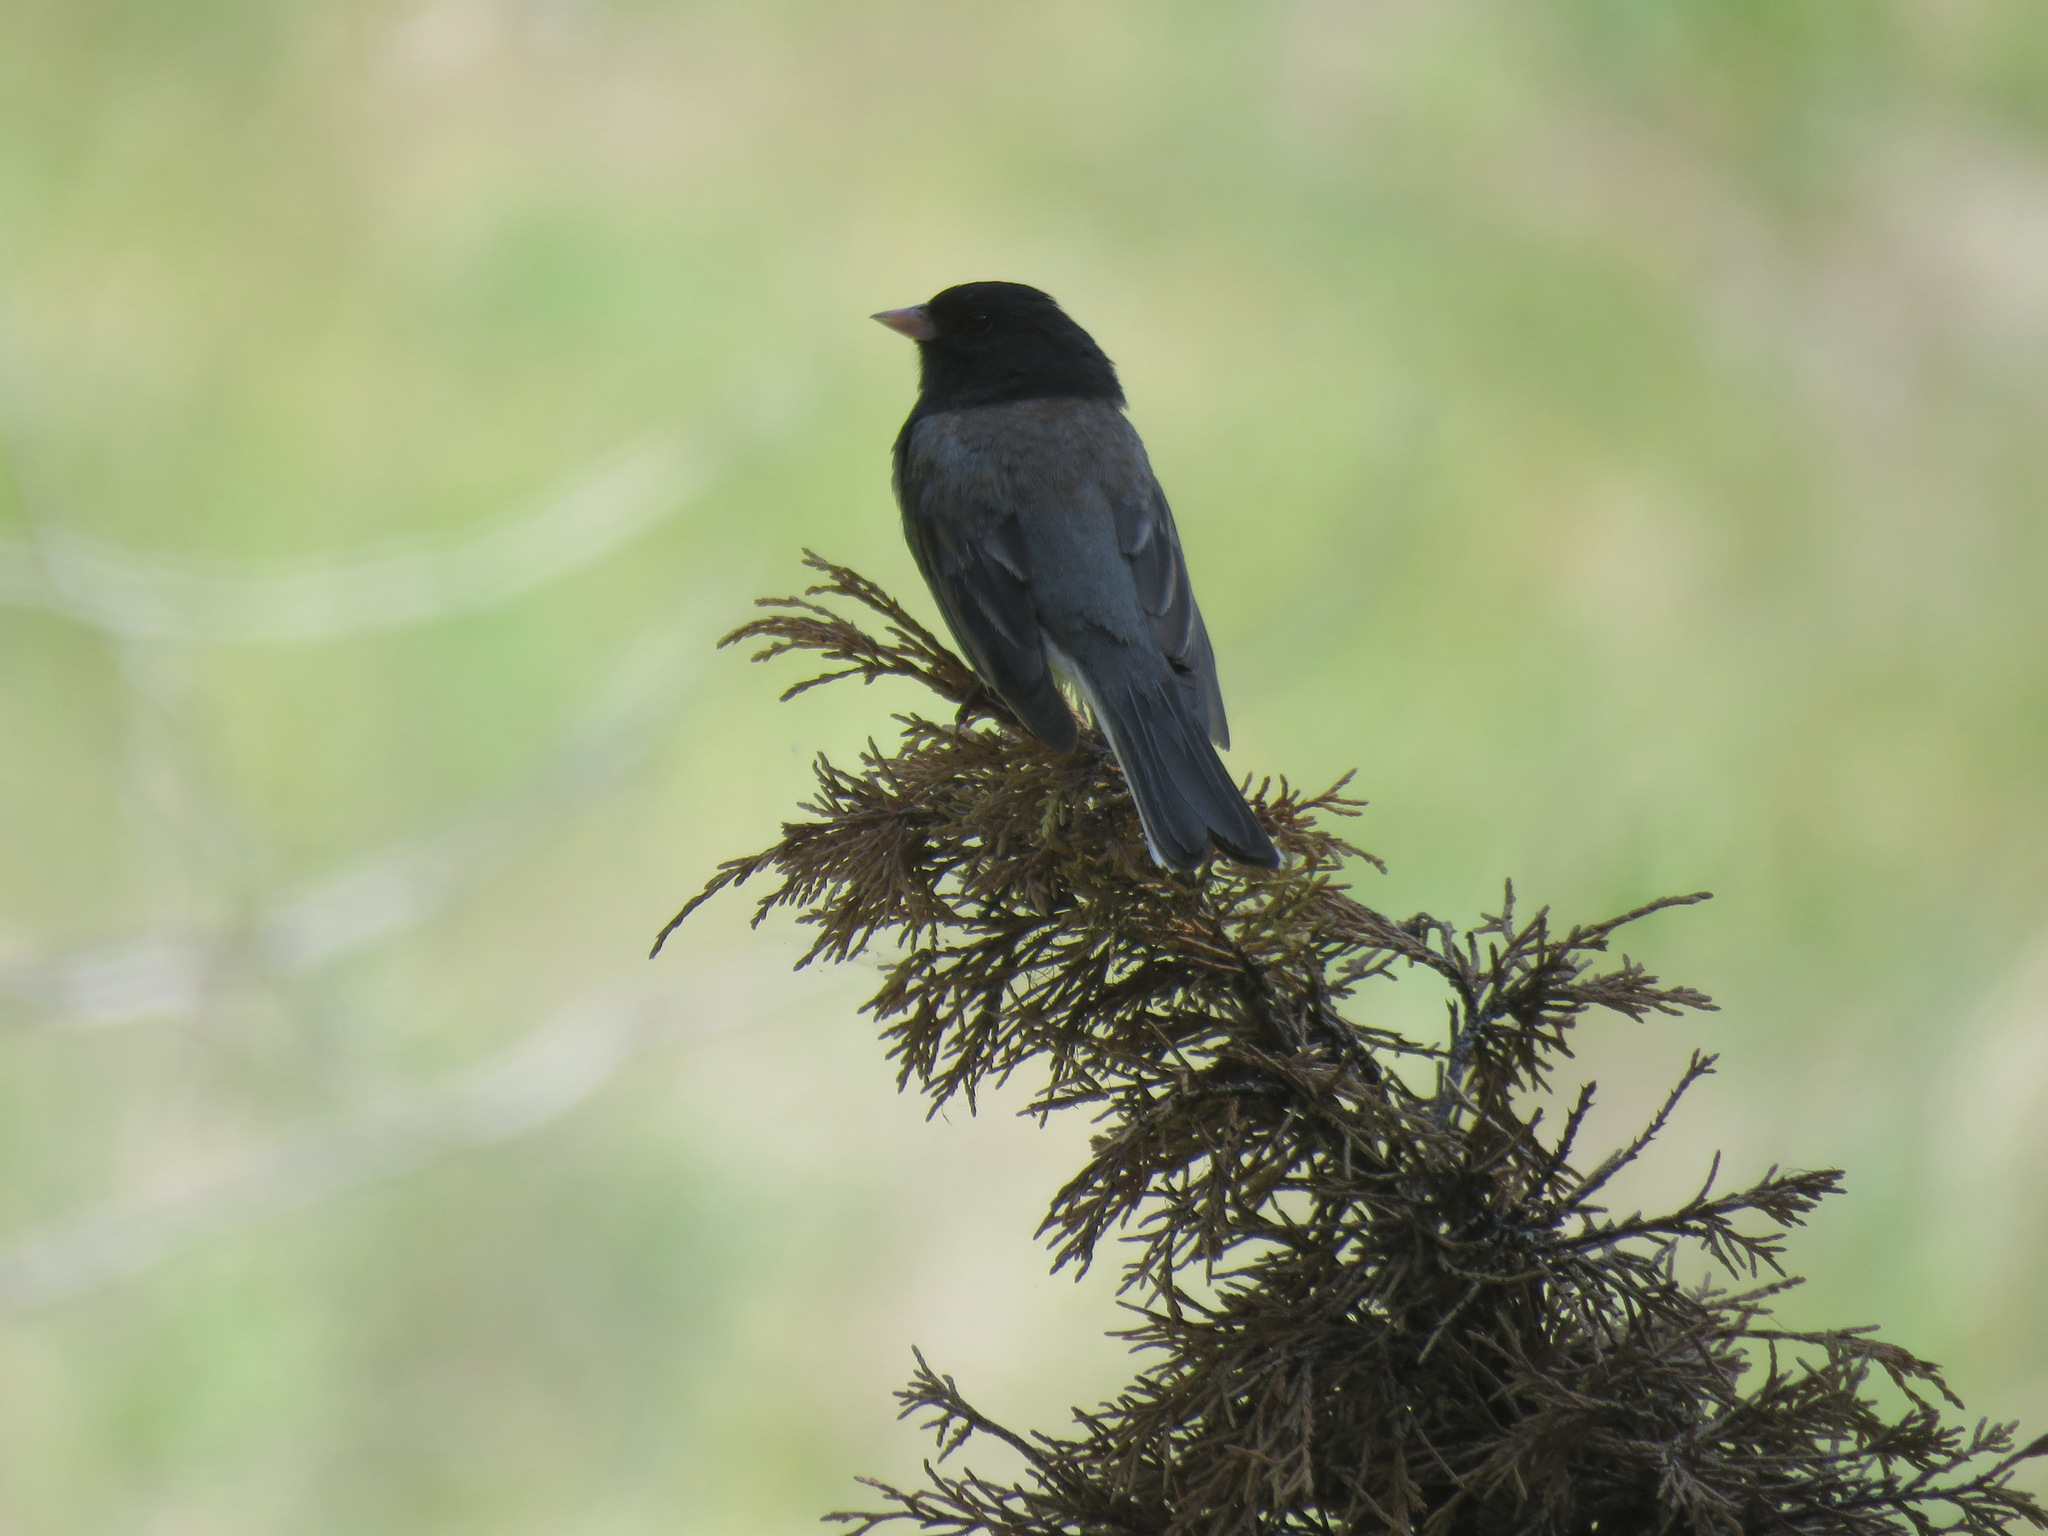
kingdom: Animalia
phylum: Chordata
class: Aves
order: Passeriformes
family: Passerellidae
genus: Junco
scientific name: Junco hyemalis
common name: Dark-eyed junco
